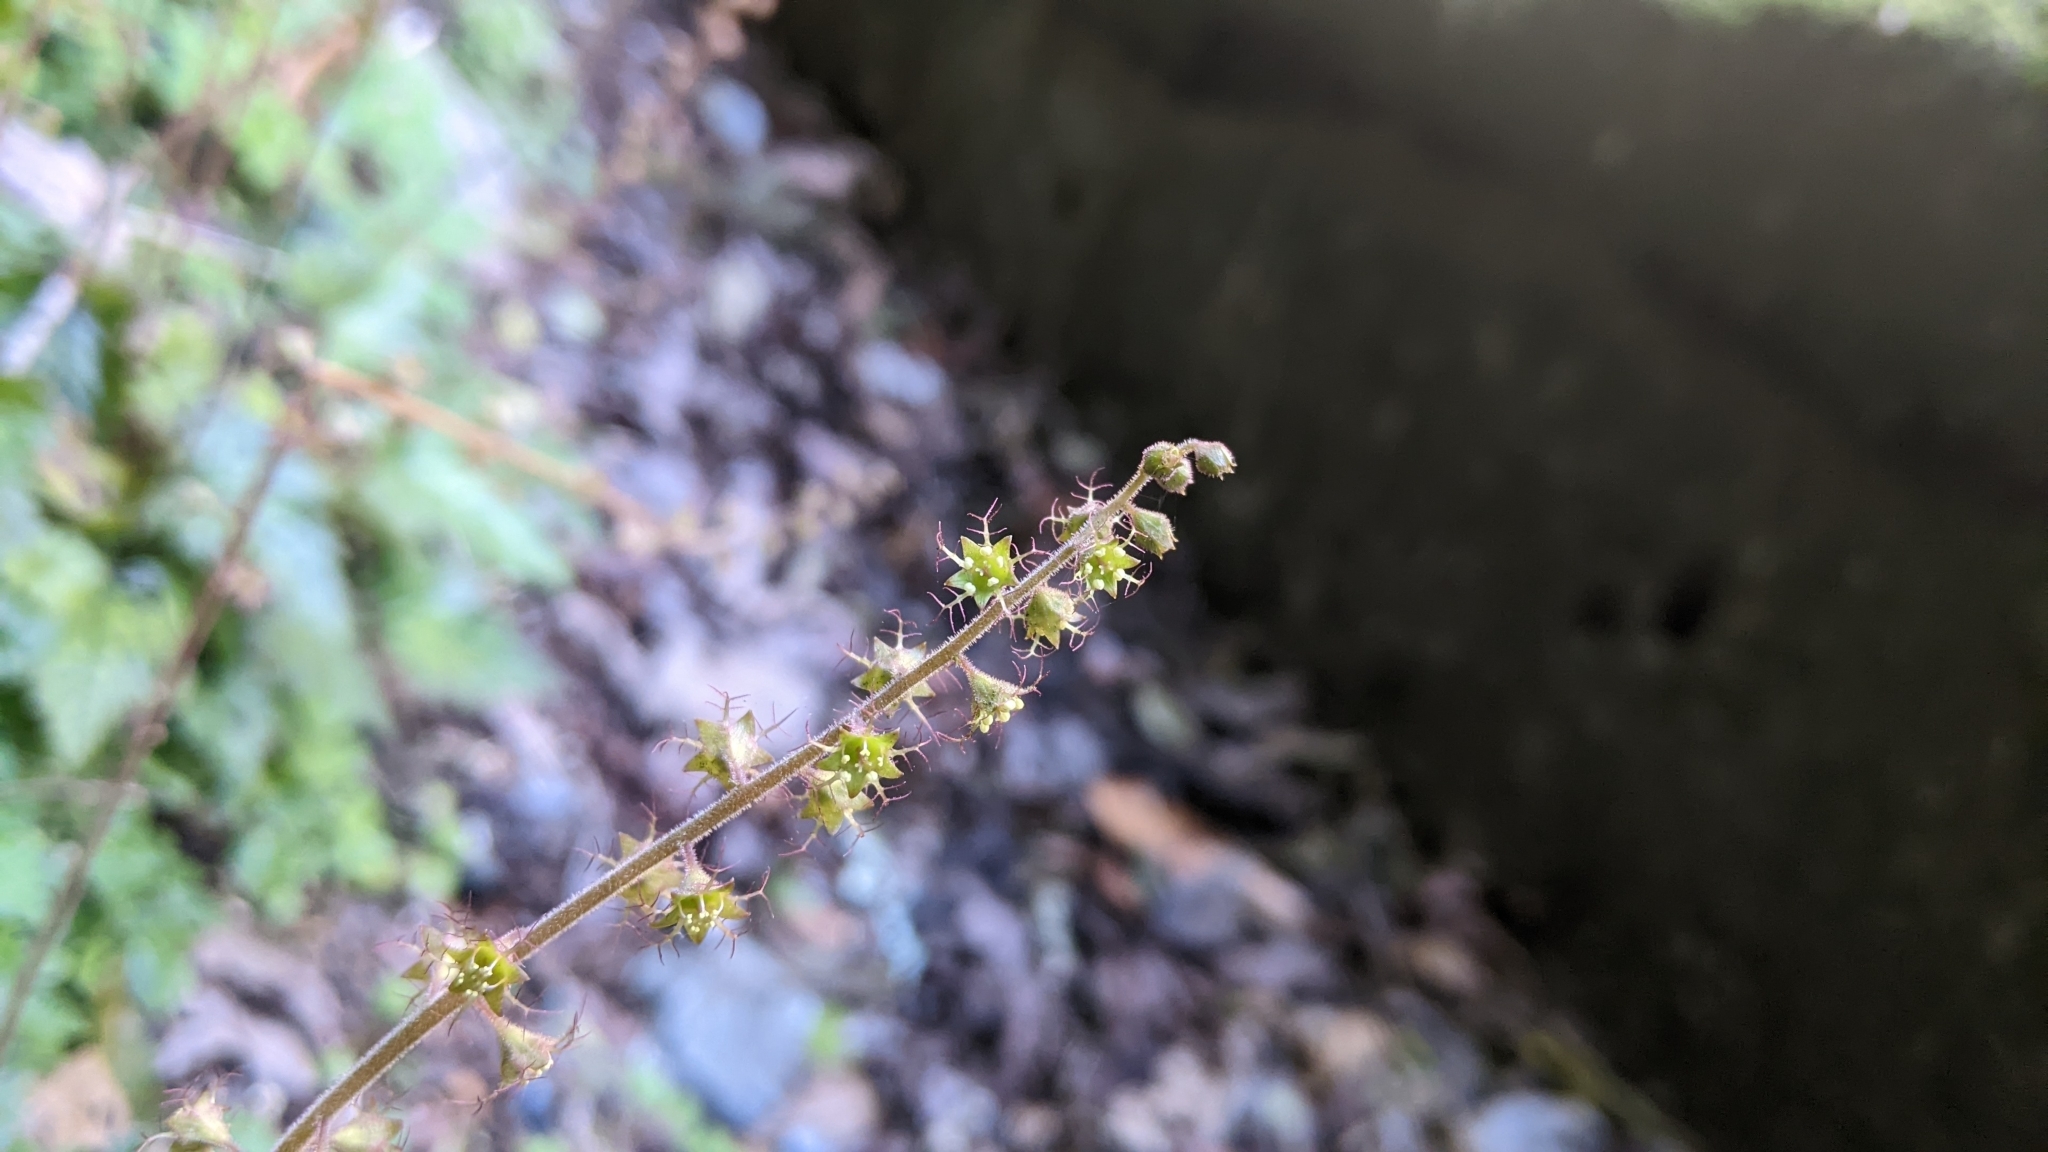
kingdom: Plantae
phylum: Tracheophyta
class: Magnoliopsida
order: Saxifragales
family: Saxifragaceae
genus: Asimitellaria
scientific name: Asimitellaria formosana
